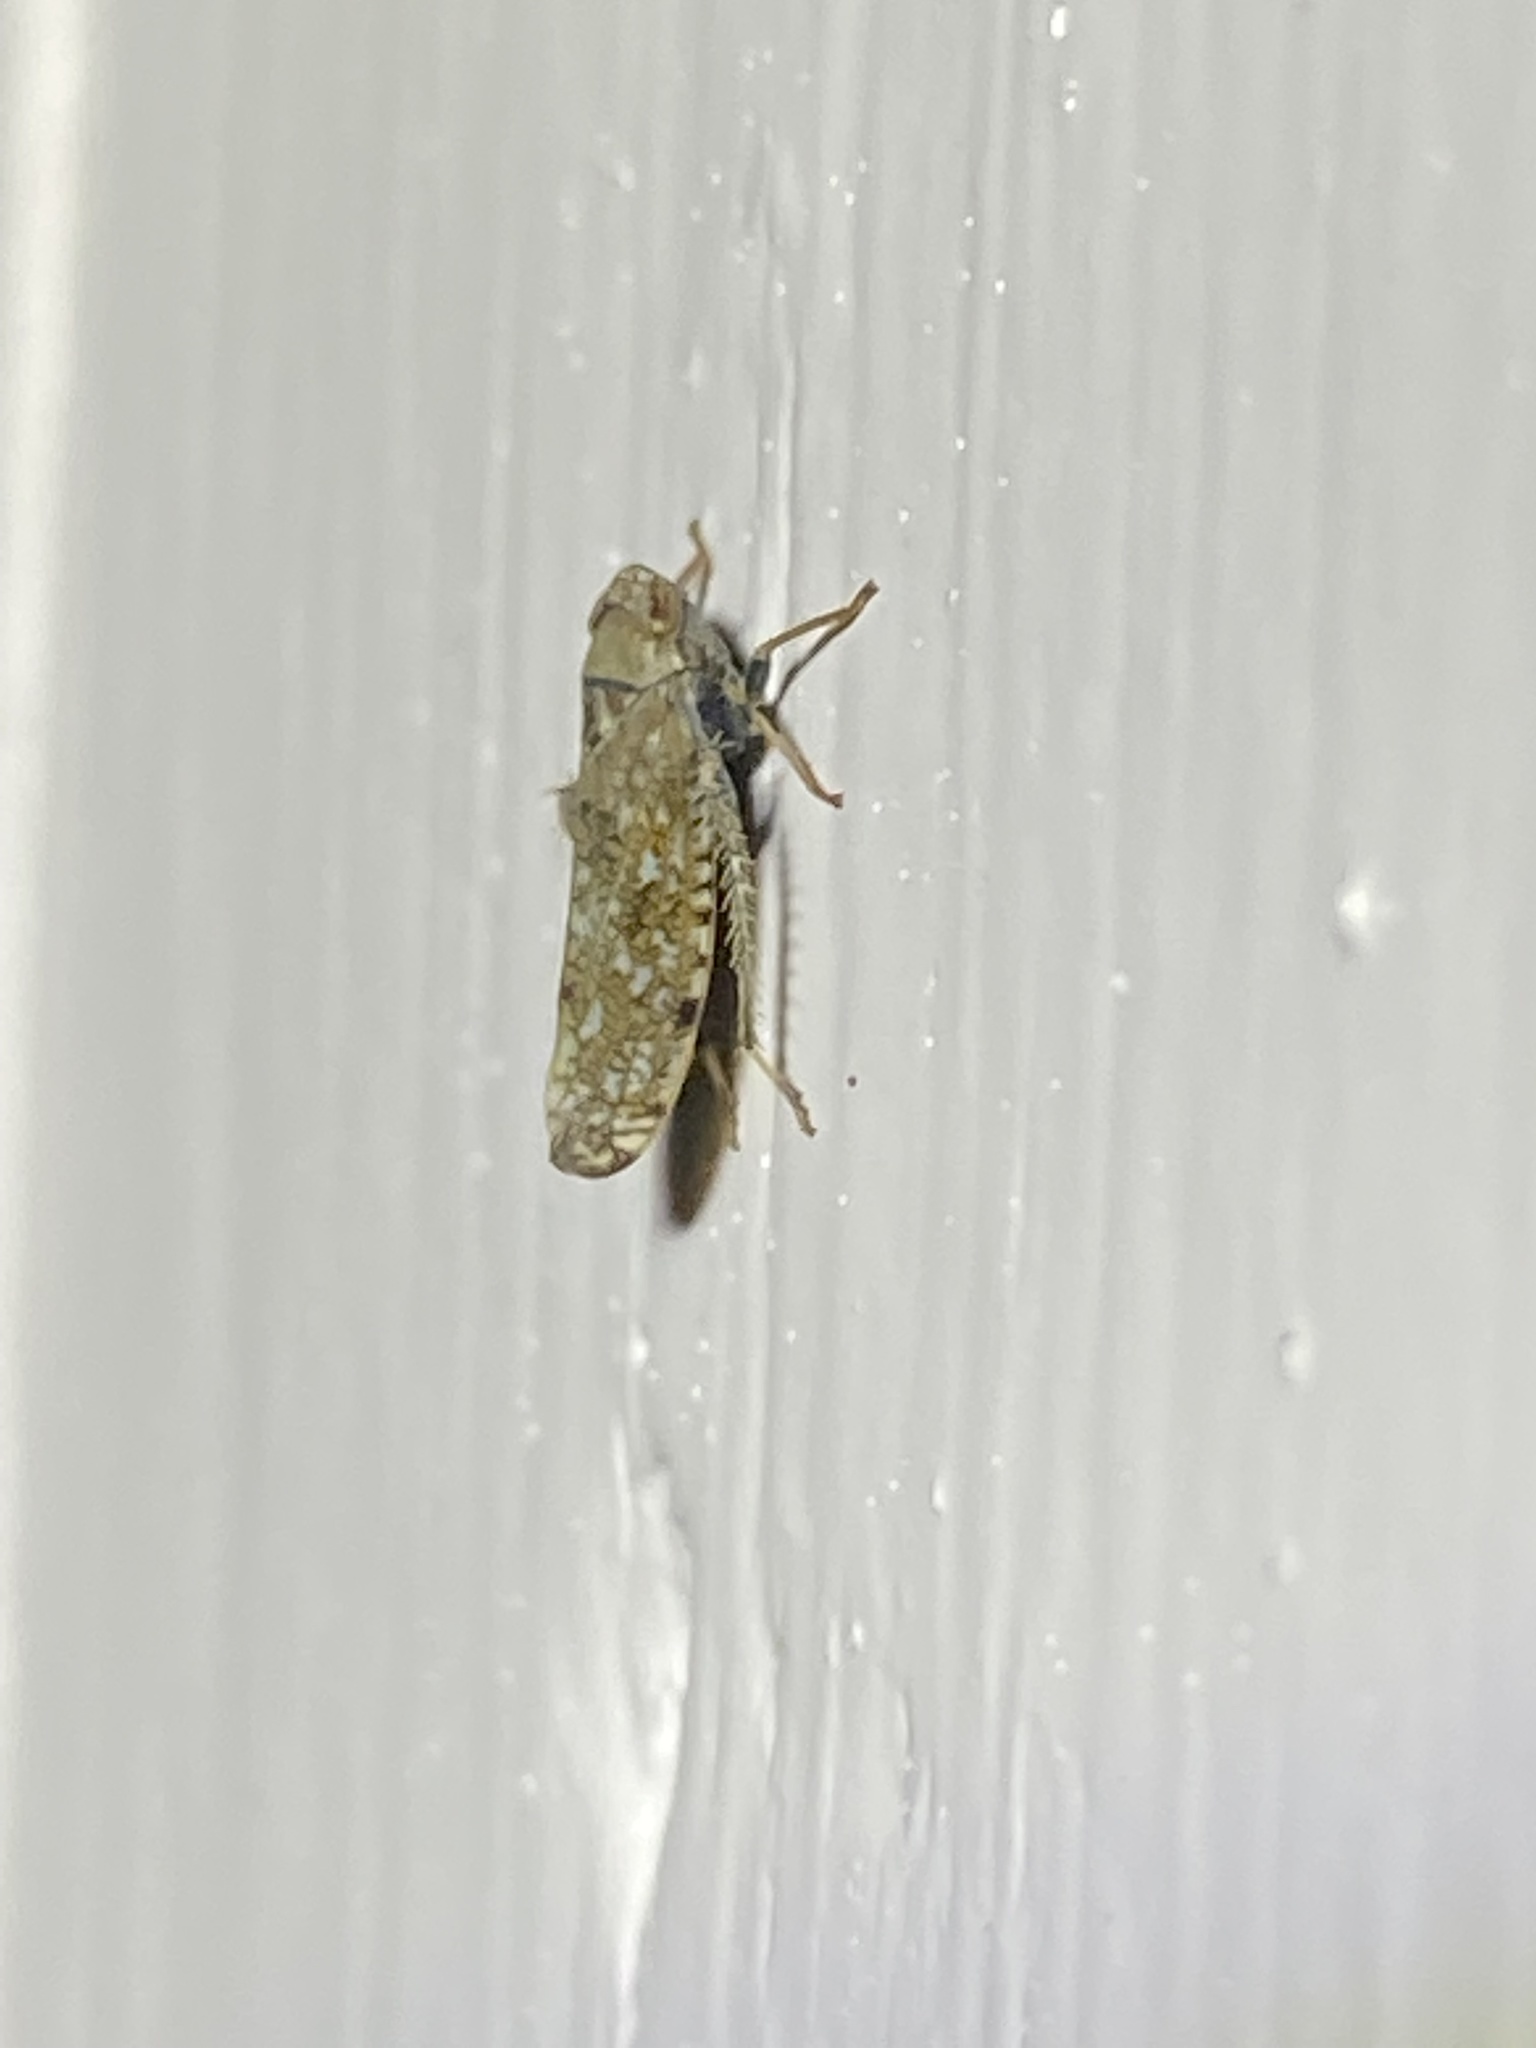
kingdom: Animalia
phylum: Arthropoda
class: Insecta
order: Hemiptera
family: Cicadellidae
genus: Orientus
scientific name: Orientus ishidae
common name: Japanese leafhopper
